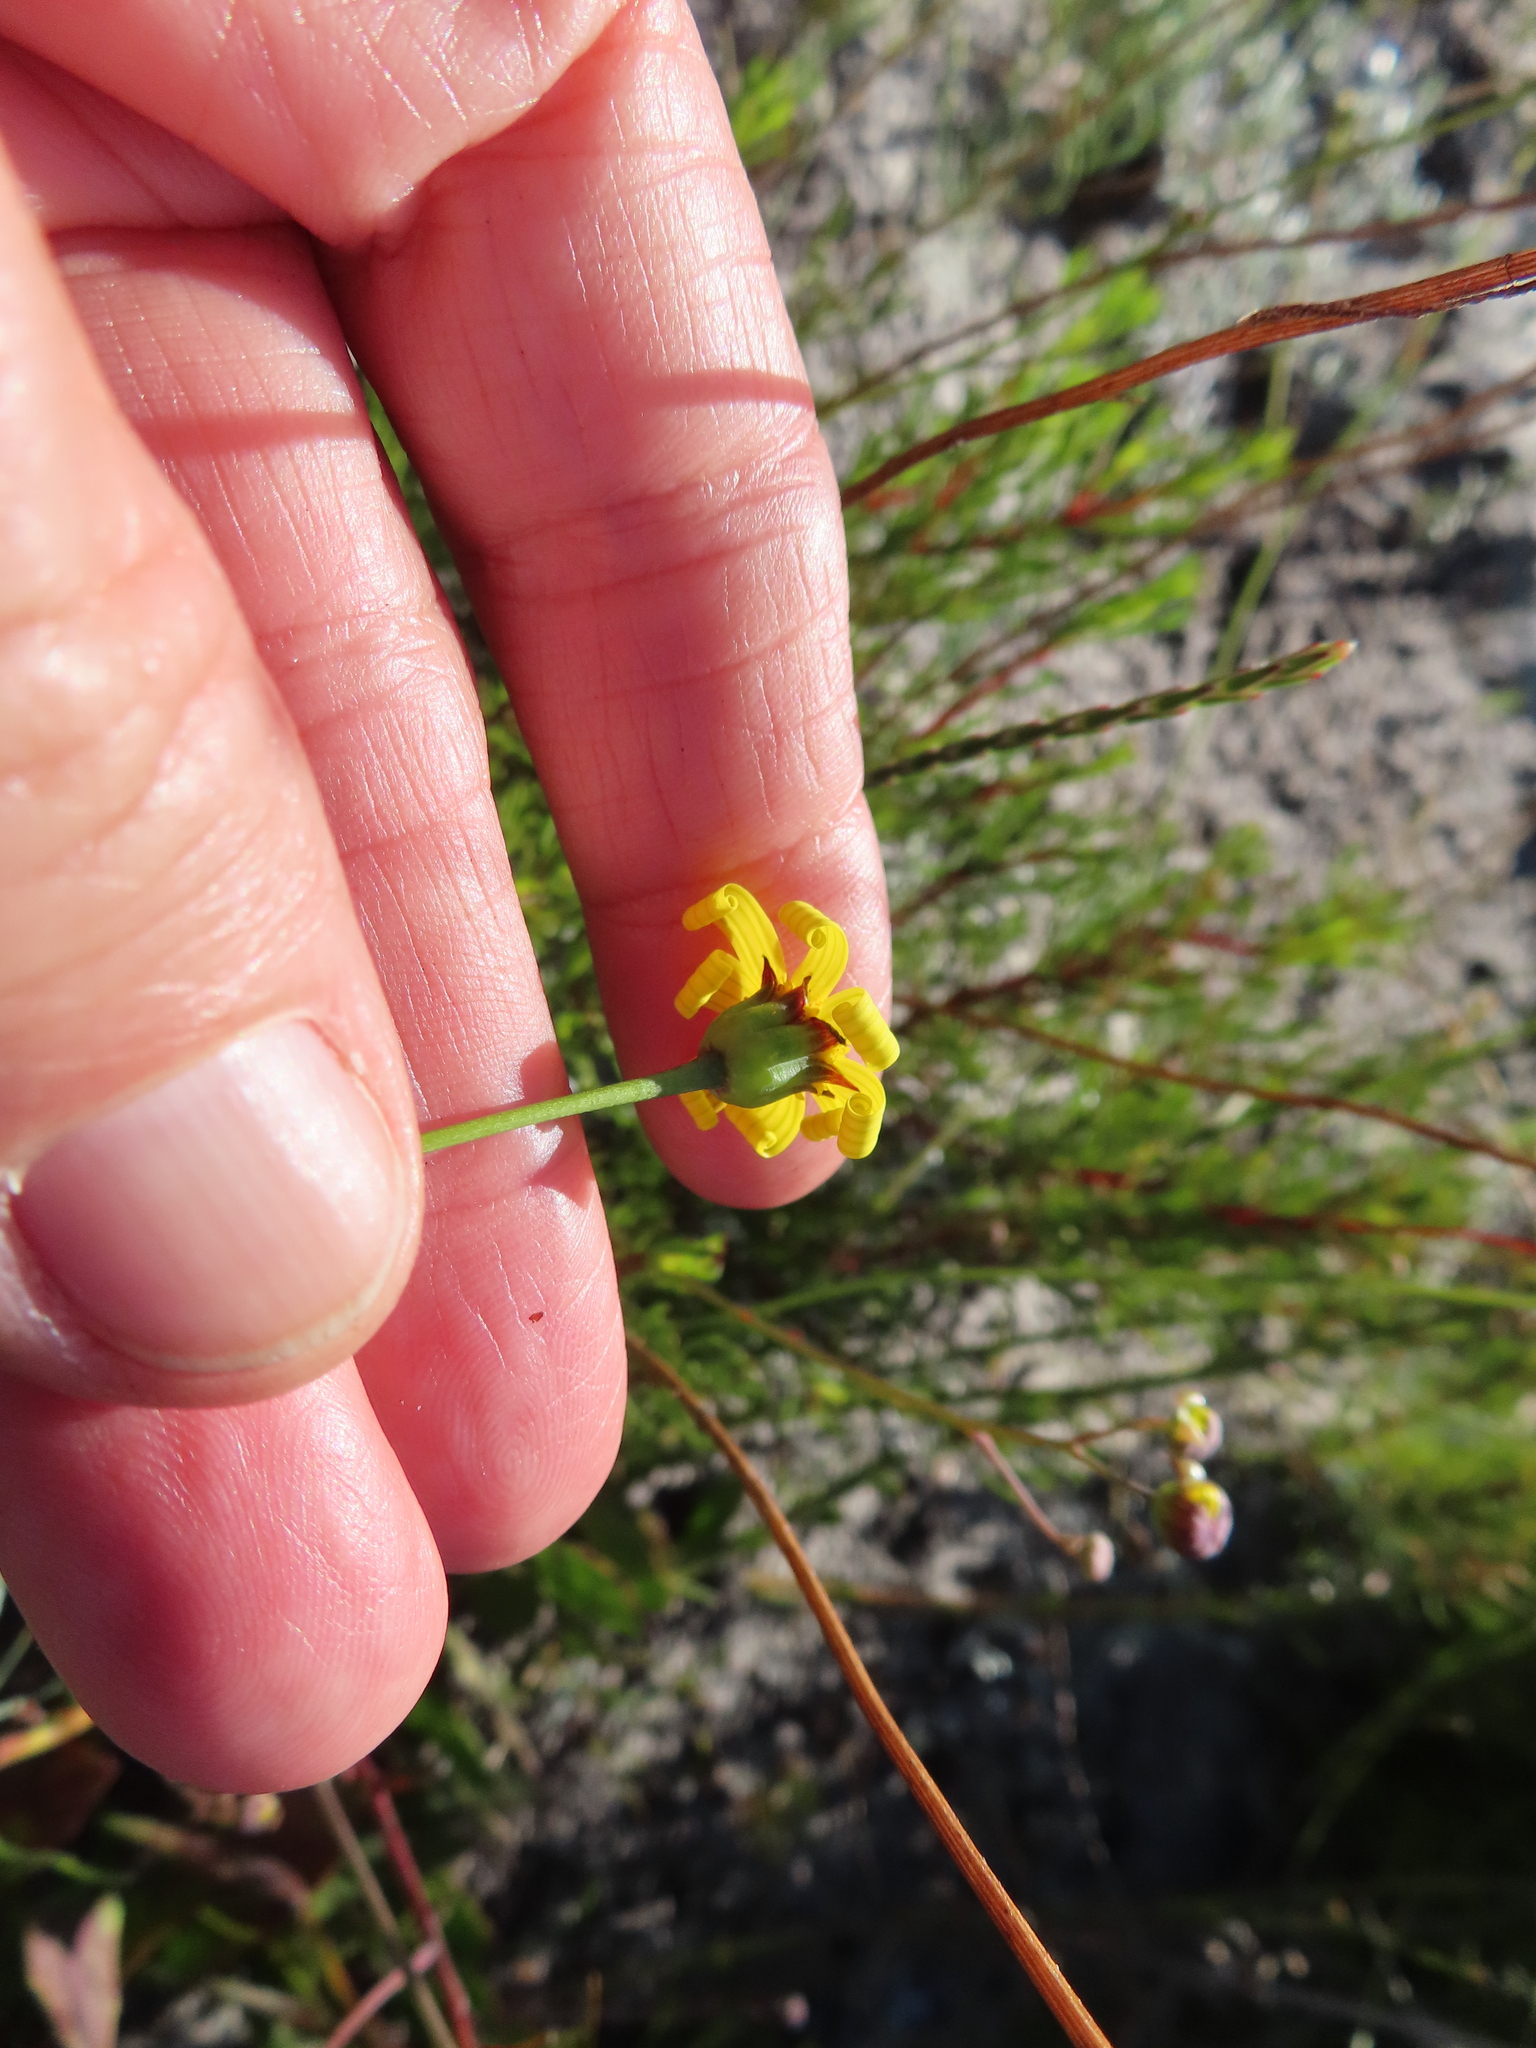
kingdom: Plantae
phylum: Tracheophyta
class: Magnoliopsida
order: Asterales
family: Asteraceae
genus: Othonna
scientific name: Othonna multicaulis
